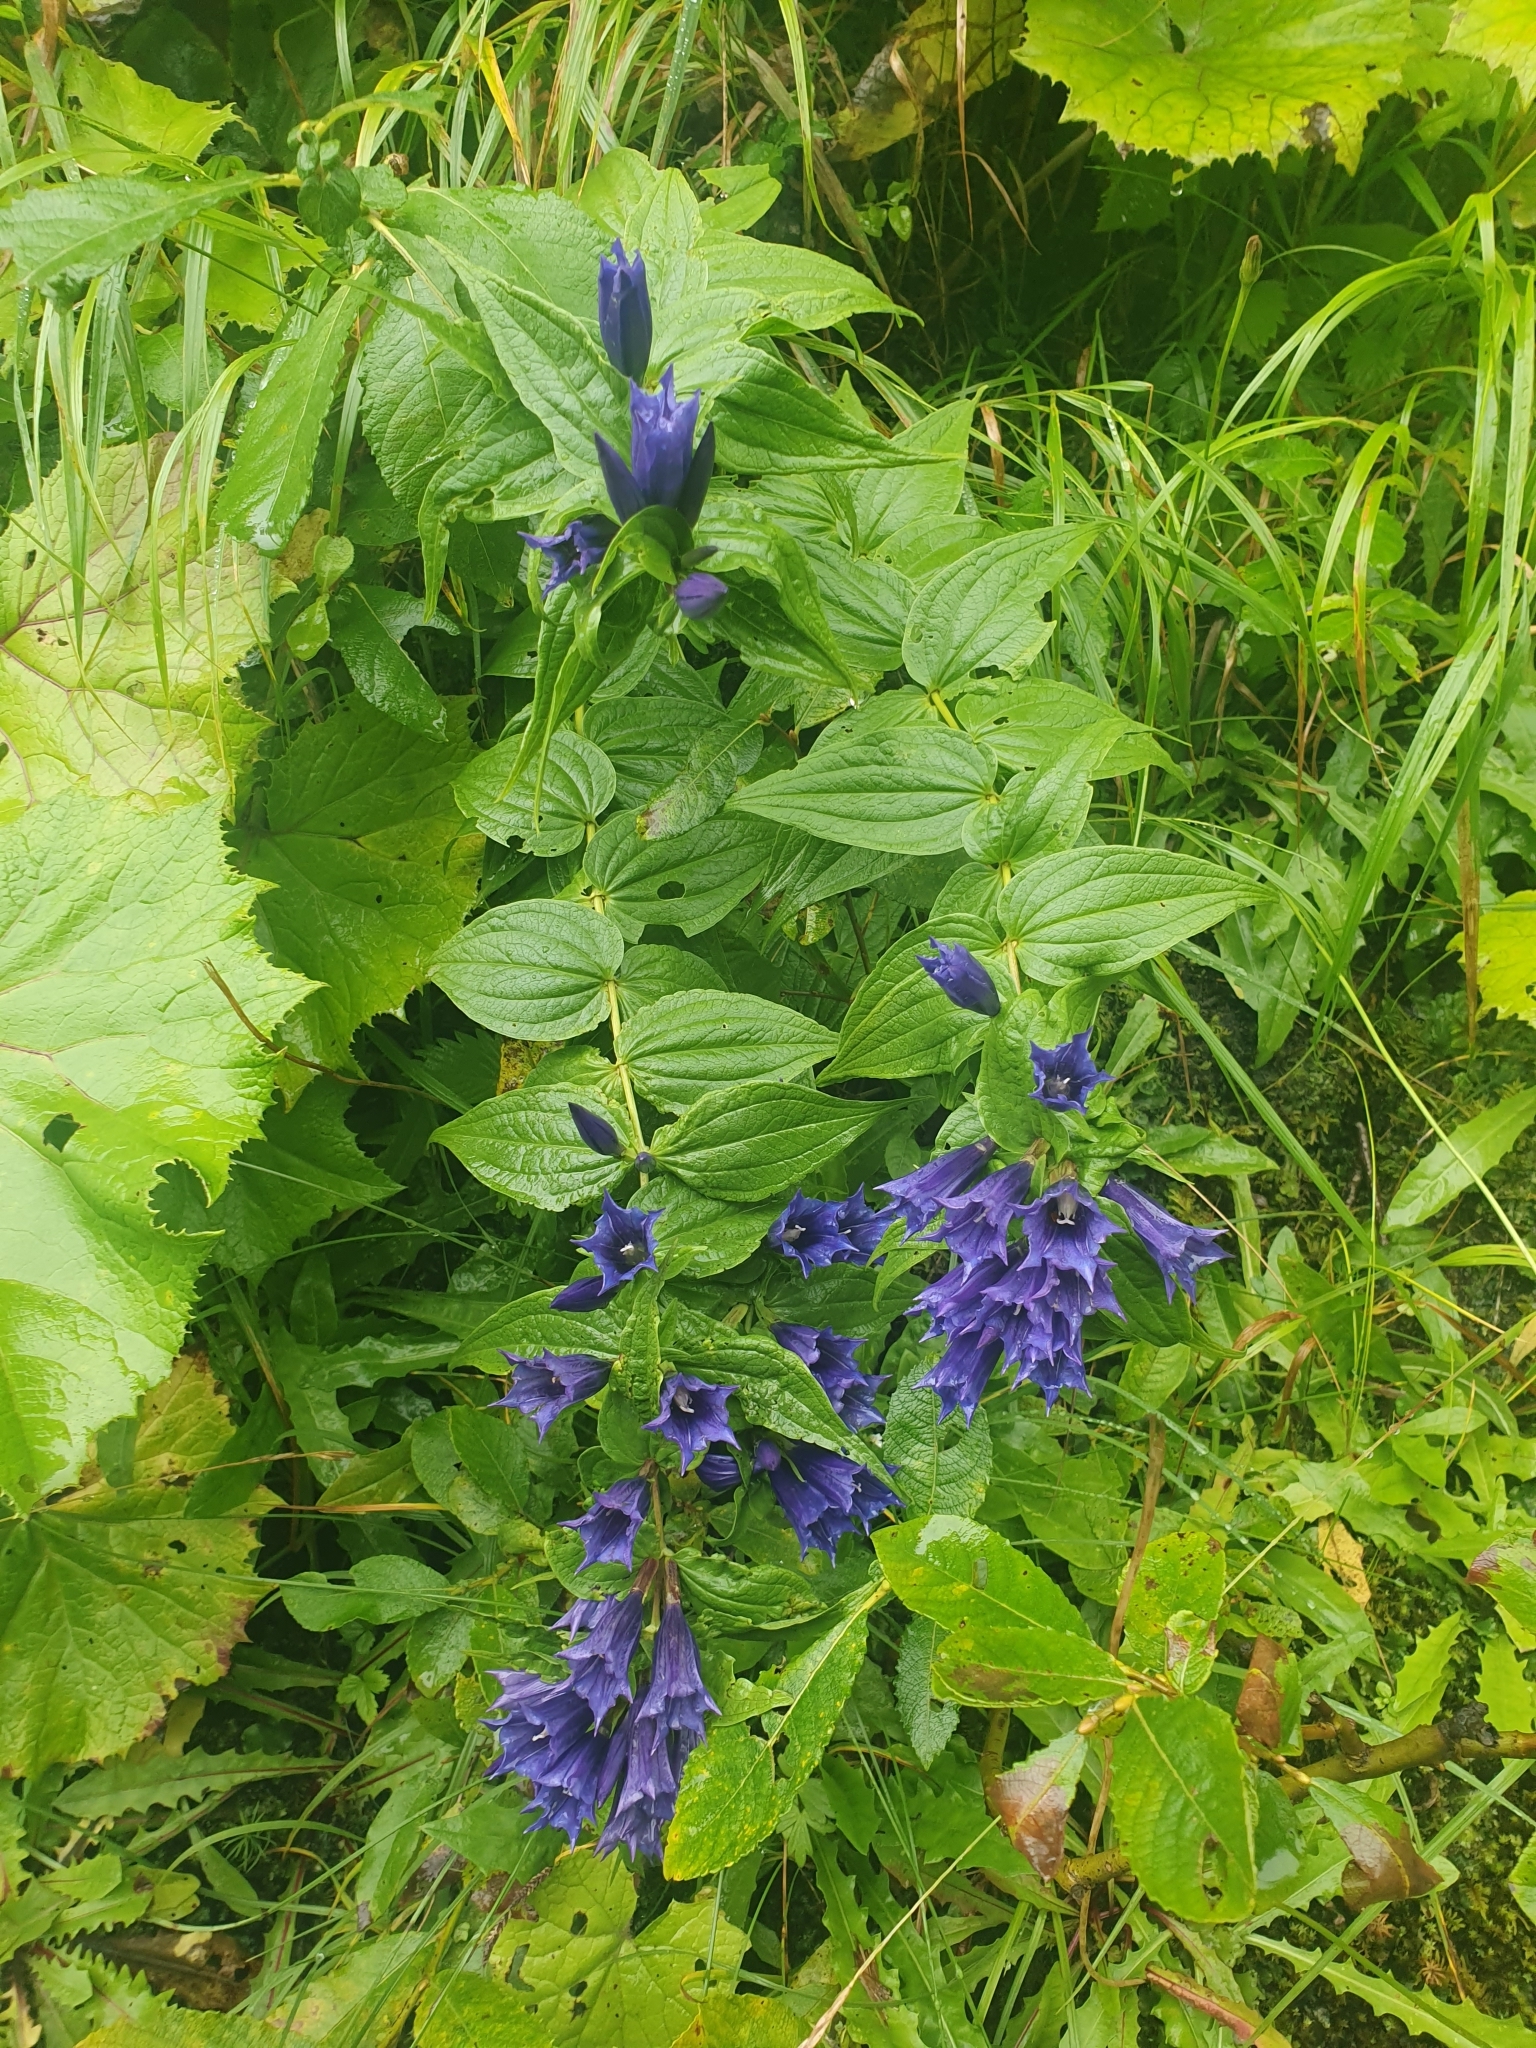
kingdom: Plantae
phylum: Tracheophyta
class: Magnoliopsida
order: Gentianales
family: Gentianaceae
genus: Gentiana
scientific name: Gentiana asclepiadea
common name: Willow gentian
